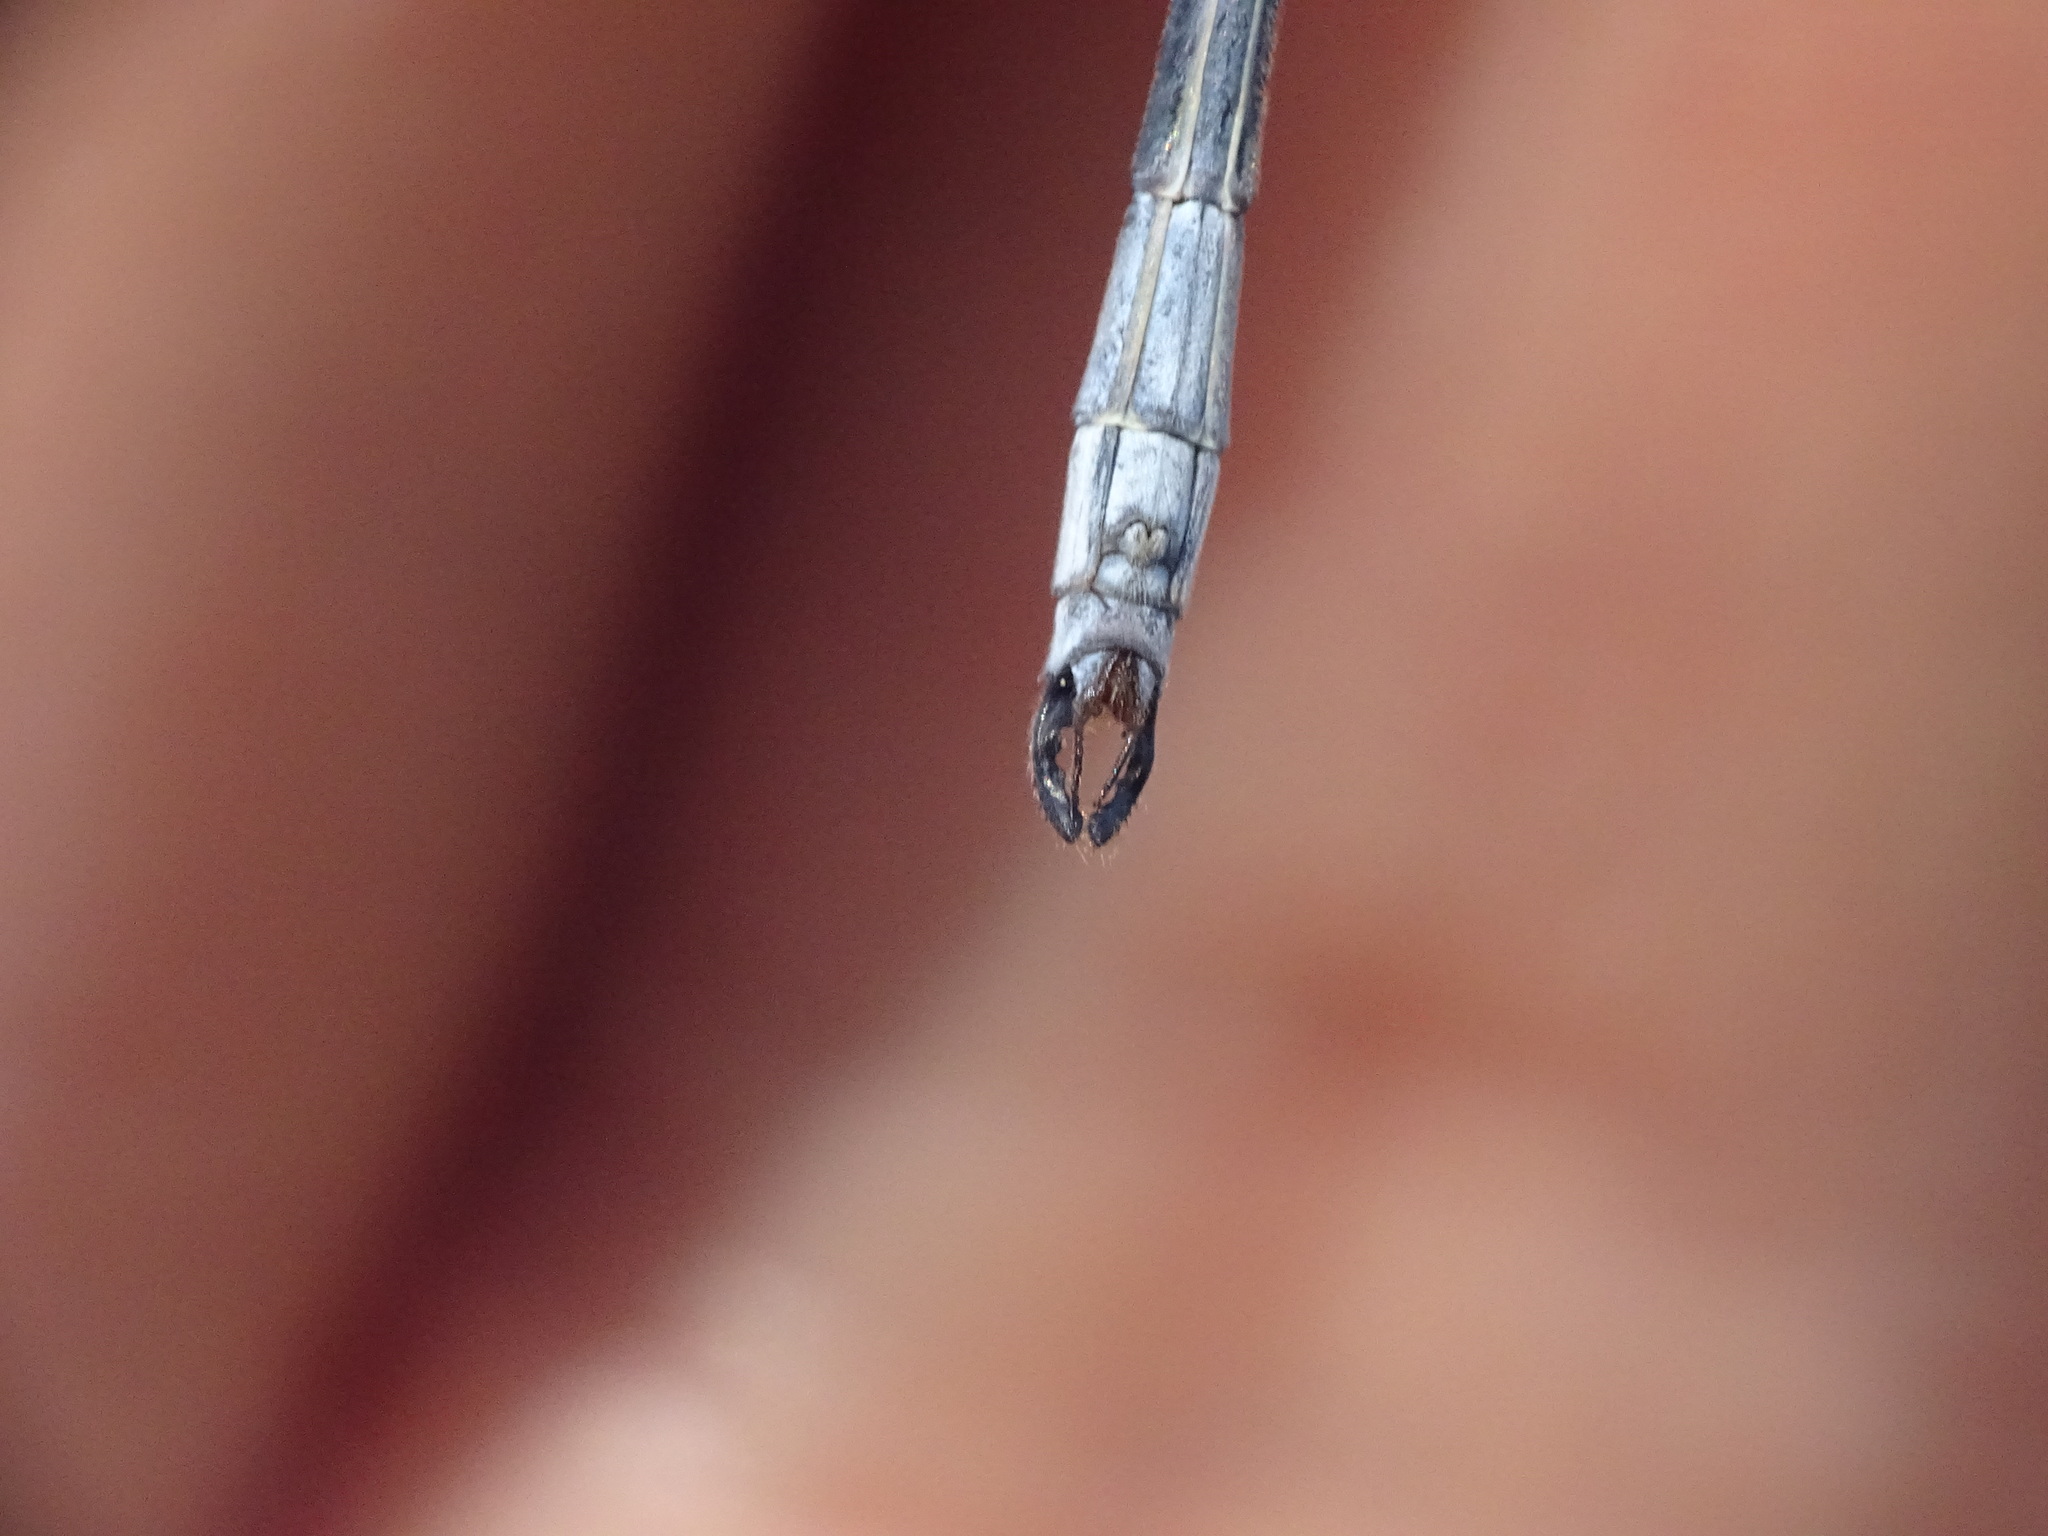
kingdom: Animalia
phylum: Arthropoda
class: Insecta
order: Odonata
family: Lestidae
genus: Lestes
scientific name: Lestes vigilax
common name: Swamp spreadwing
